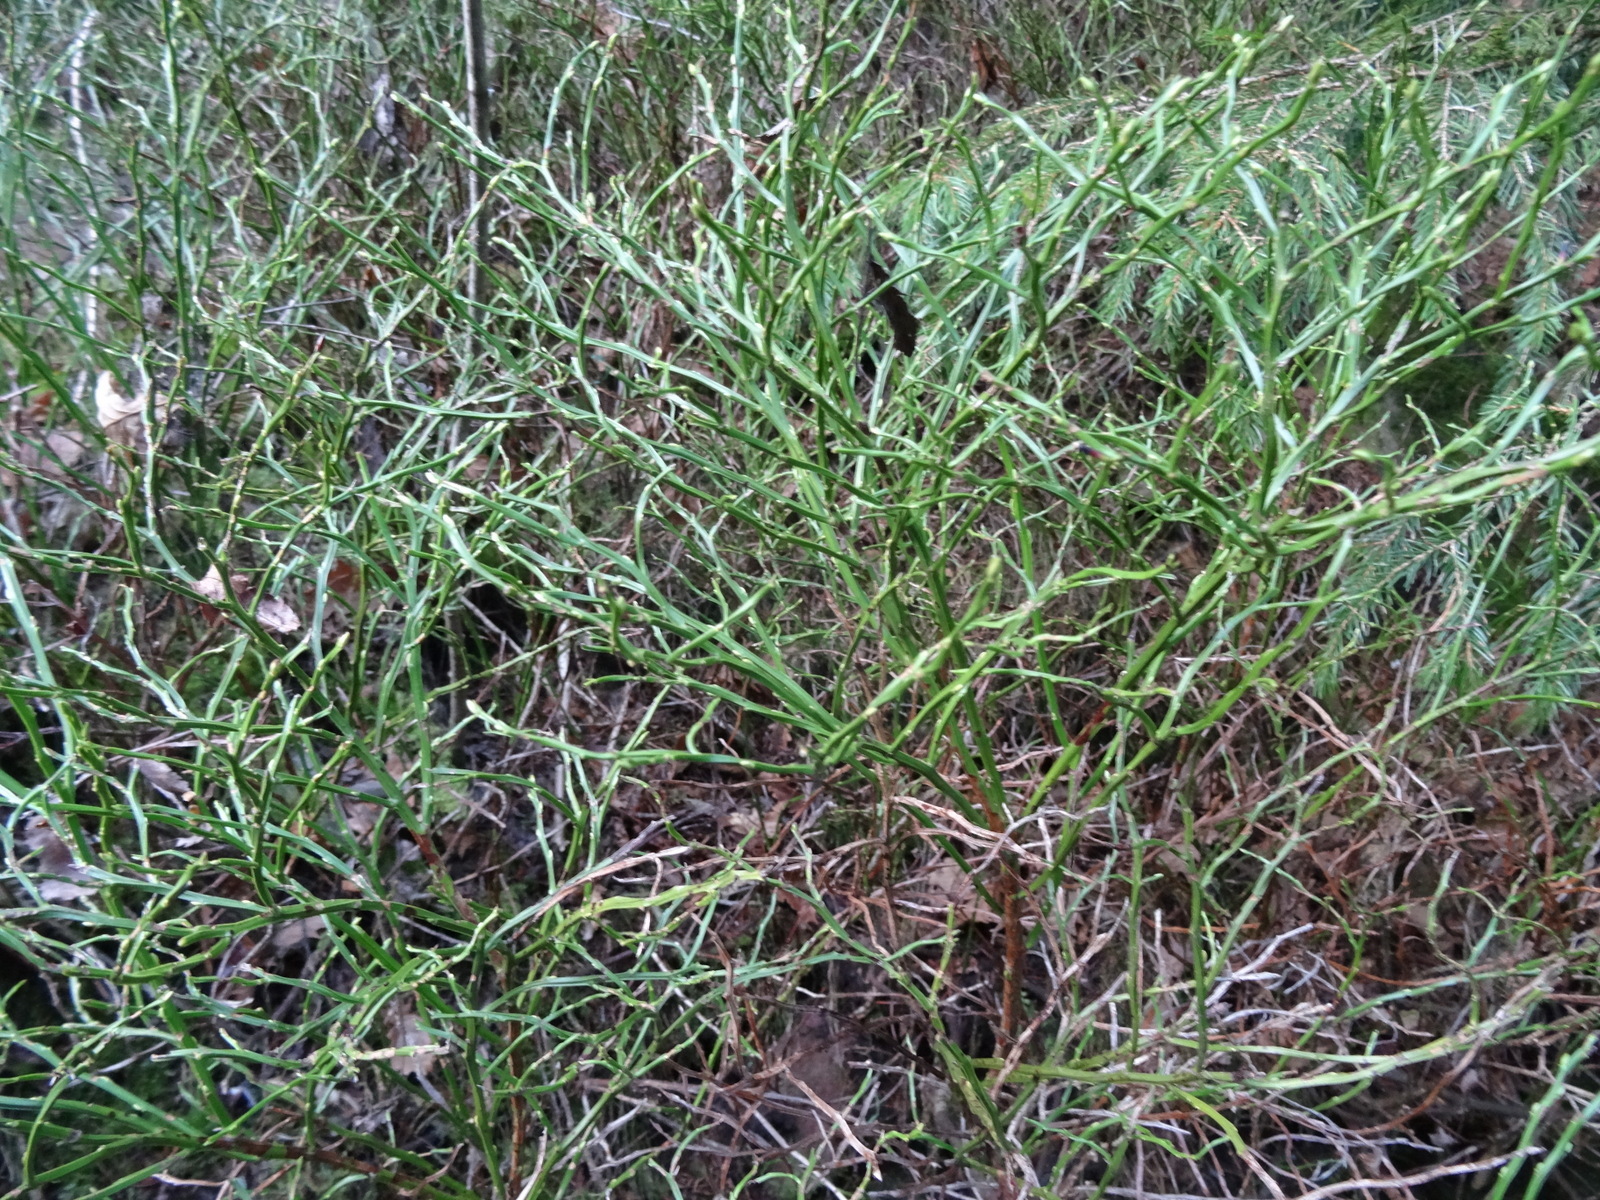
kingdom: Plantae
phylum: Tracheophyta
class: Magnoliopsida
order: Ericales
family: Ericaceae
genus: Vaccinium
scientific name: Vaccinium myrtillus
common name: Bilberry
